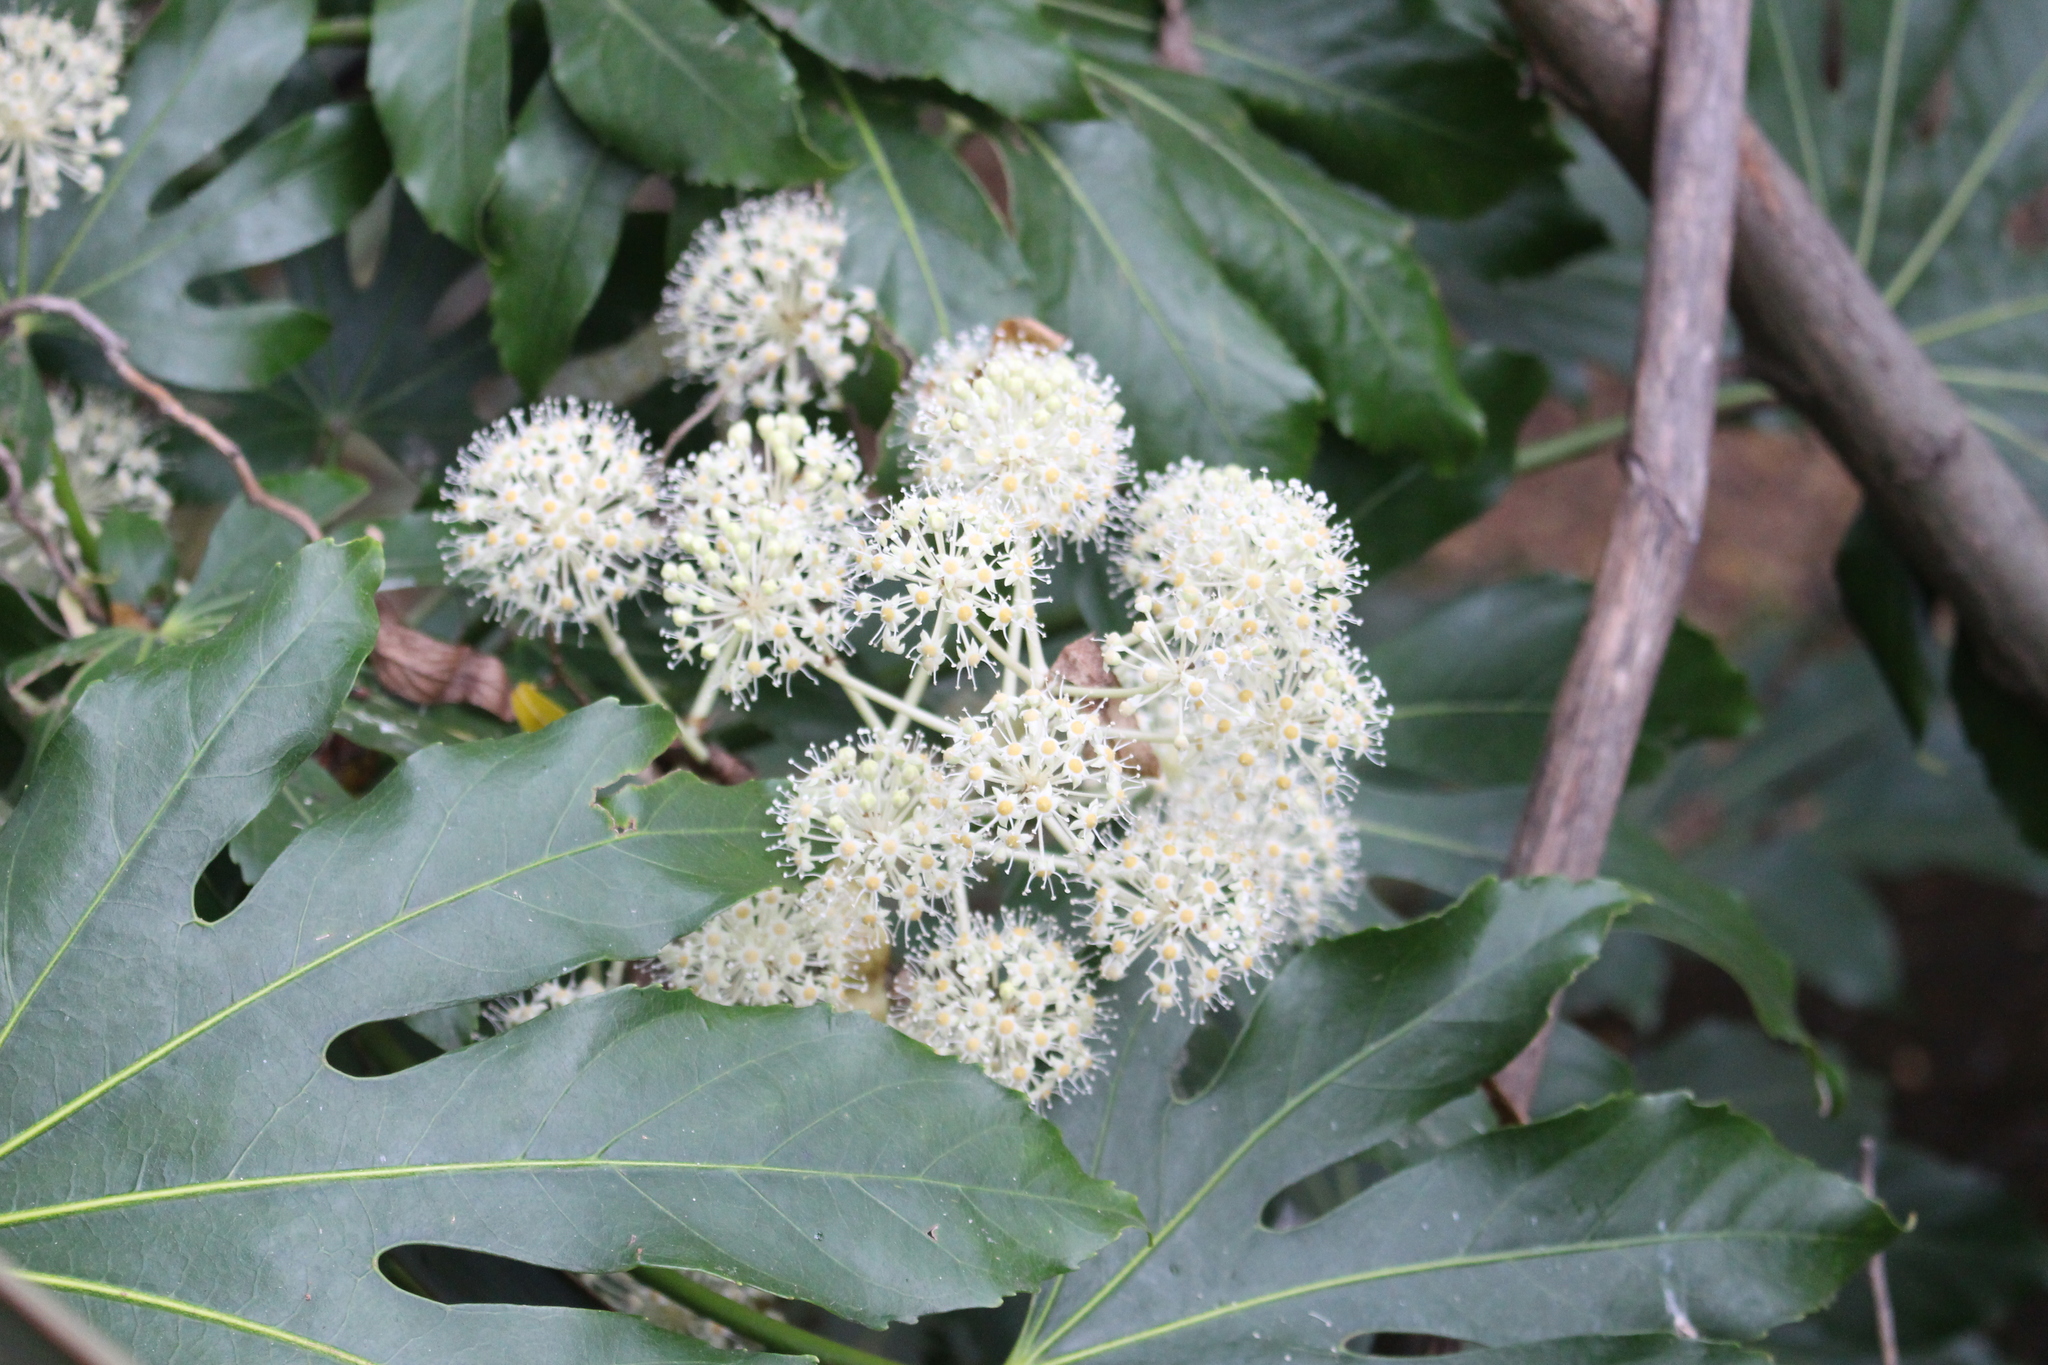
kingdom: Plantae
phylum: Tracheophyta
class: Magnoliopsida
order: Apiales
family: Araliaceae
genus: Fatsia
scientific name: Fatsia japonica
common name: Fatsia
